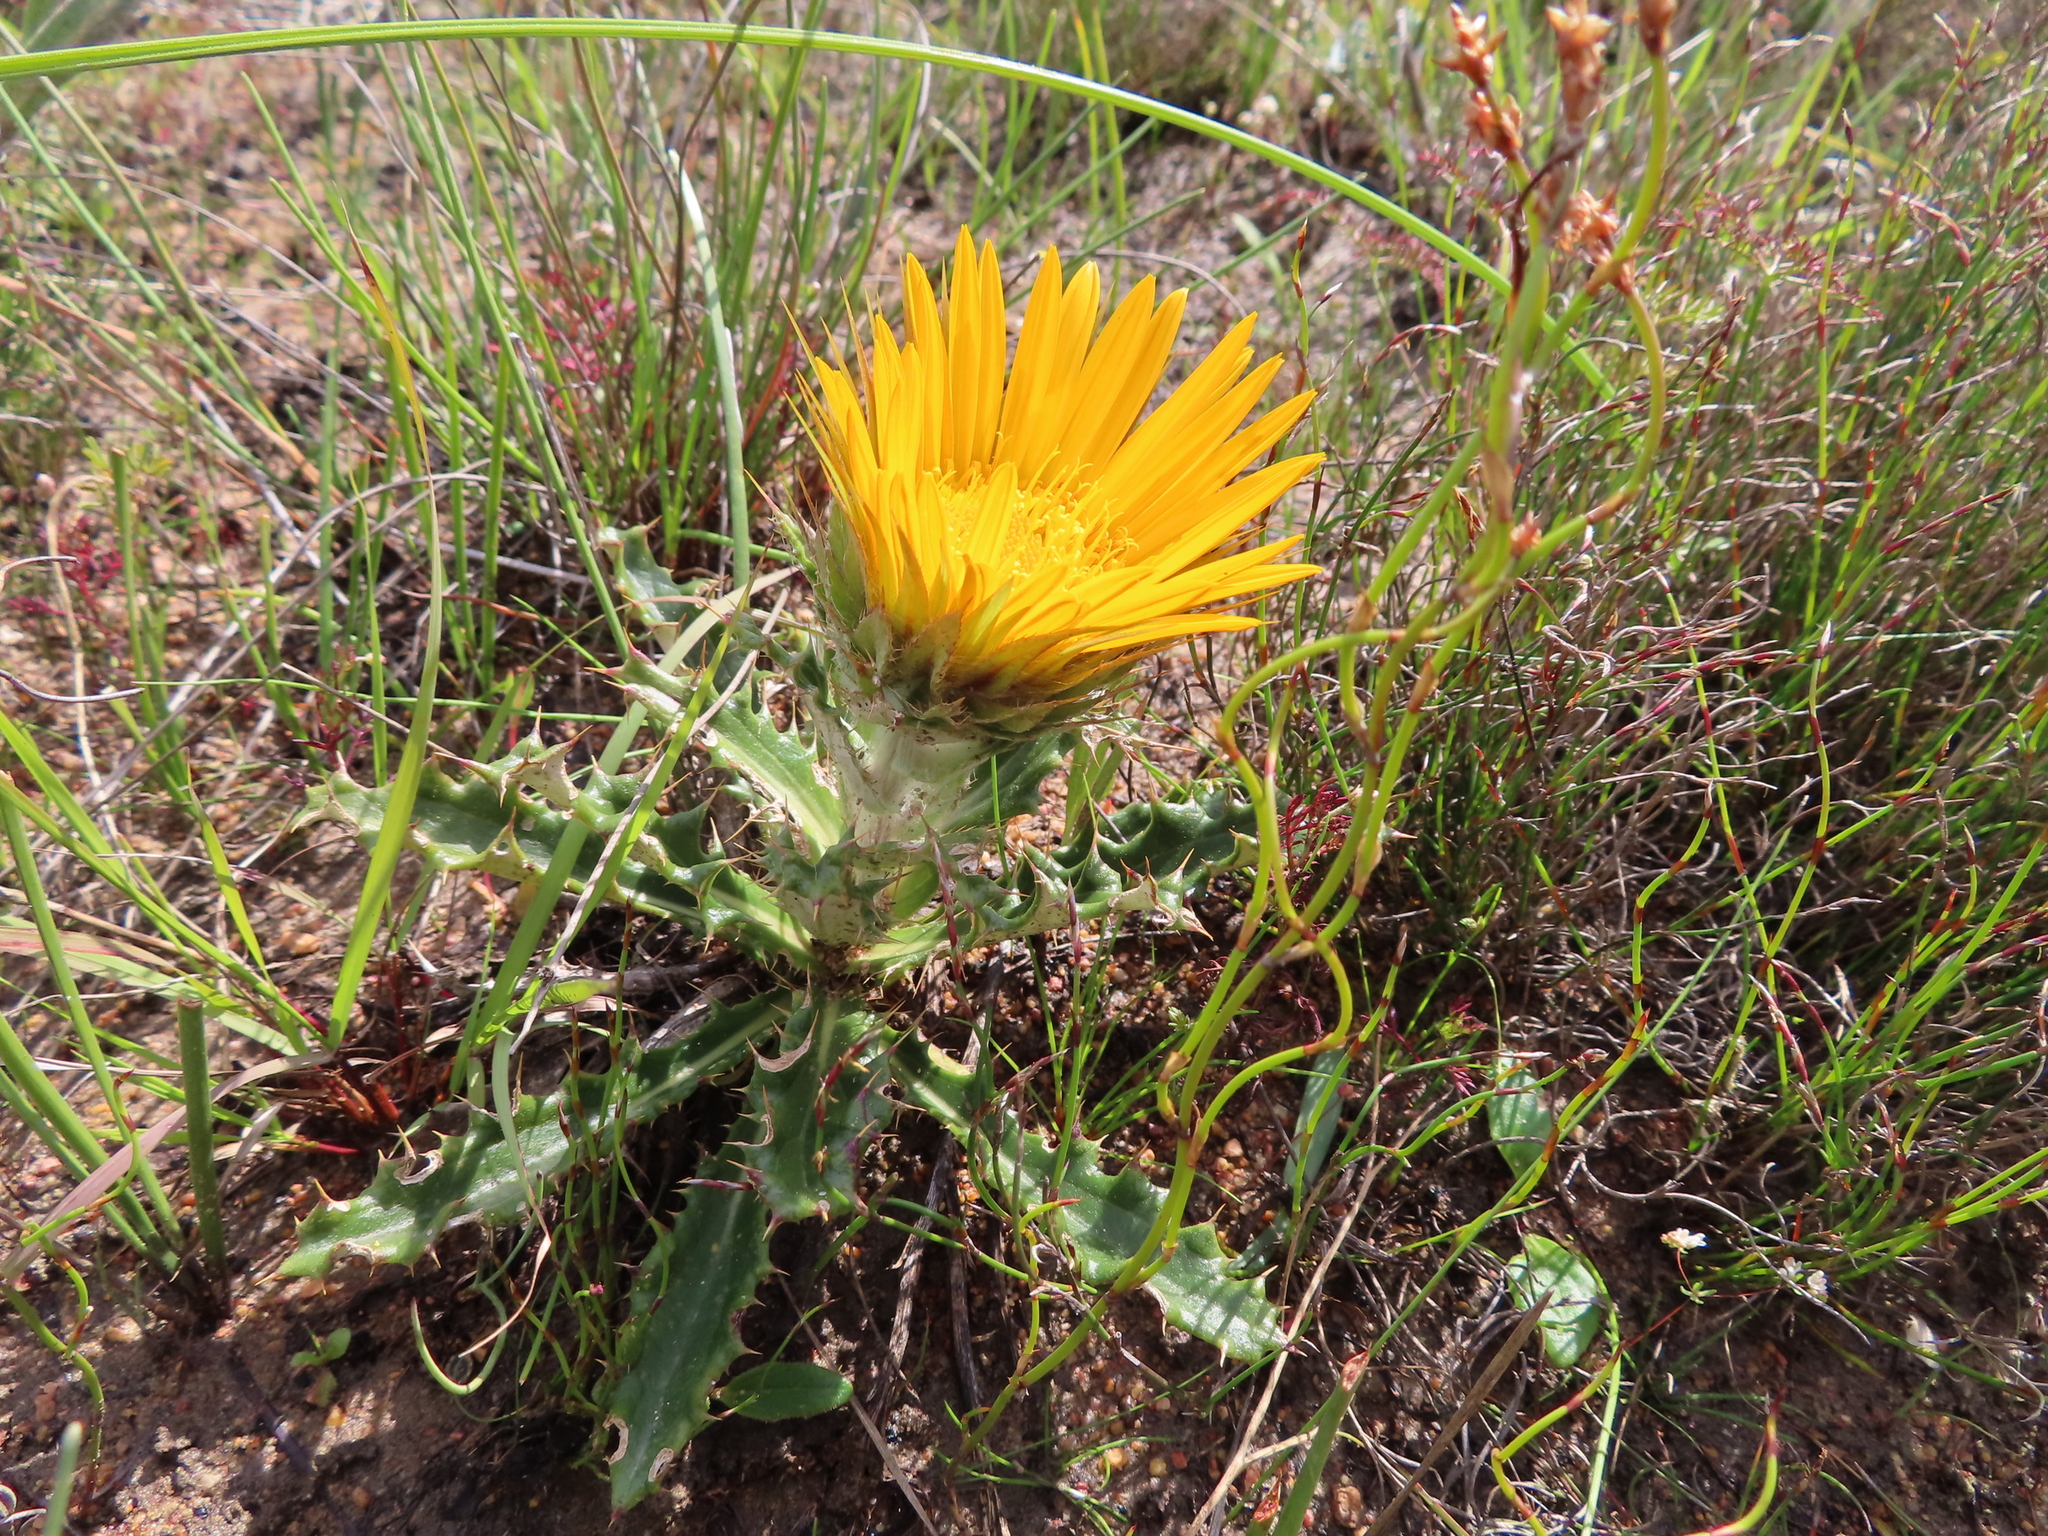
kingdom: Plantae
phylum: Tracheophyta
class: Magnoliopsida
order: Asterales
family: Asteraceae
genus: Berkheya
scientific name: Berkheya barbata
